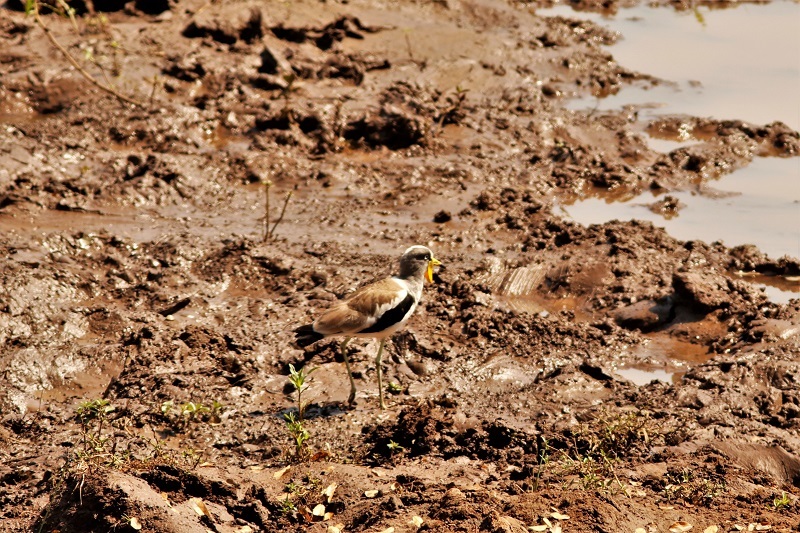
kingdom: Animalia
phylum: Chordata
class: Aves
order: Charadriiformes
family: Charadriidae
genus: Vanellus
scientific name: Vanellus albiceps
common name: White-crowned lapwing
